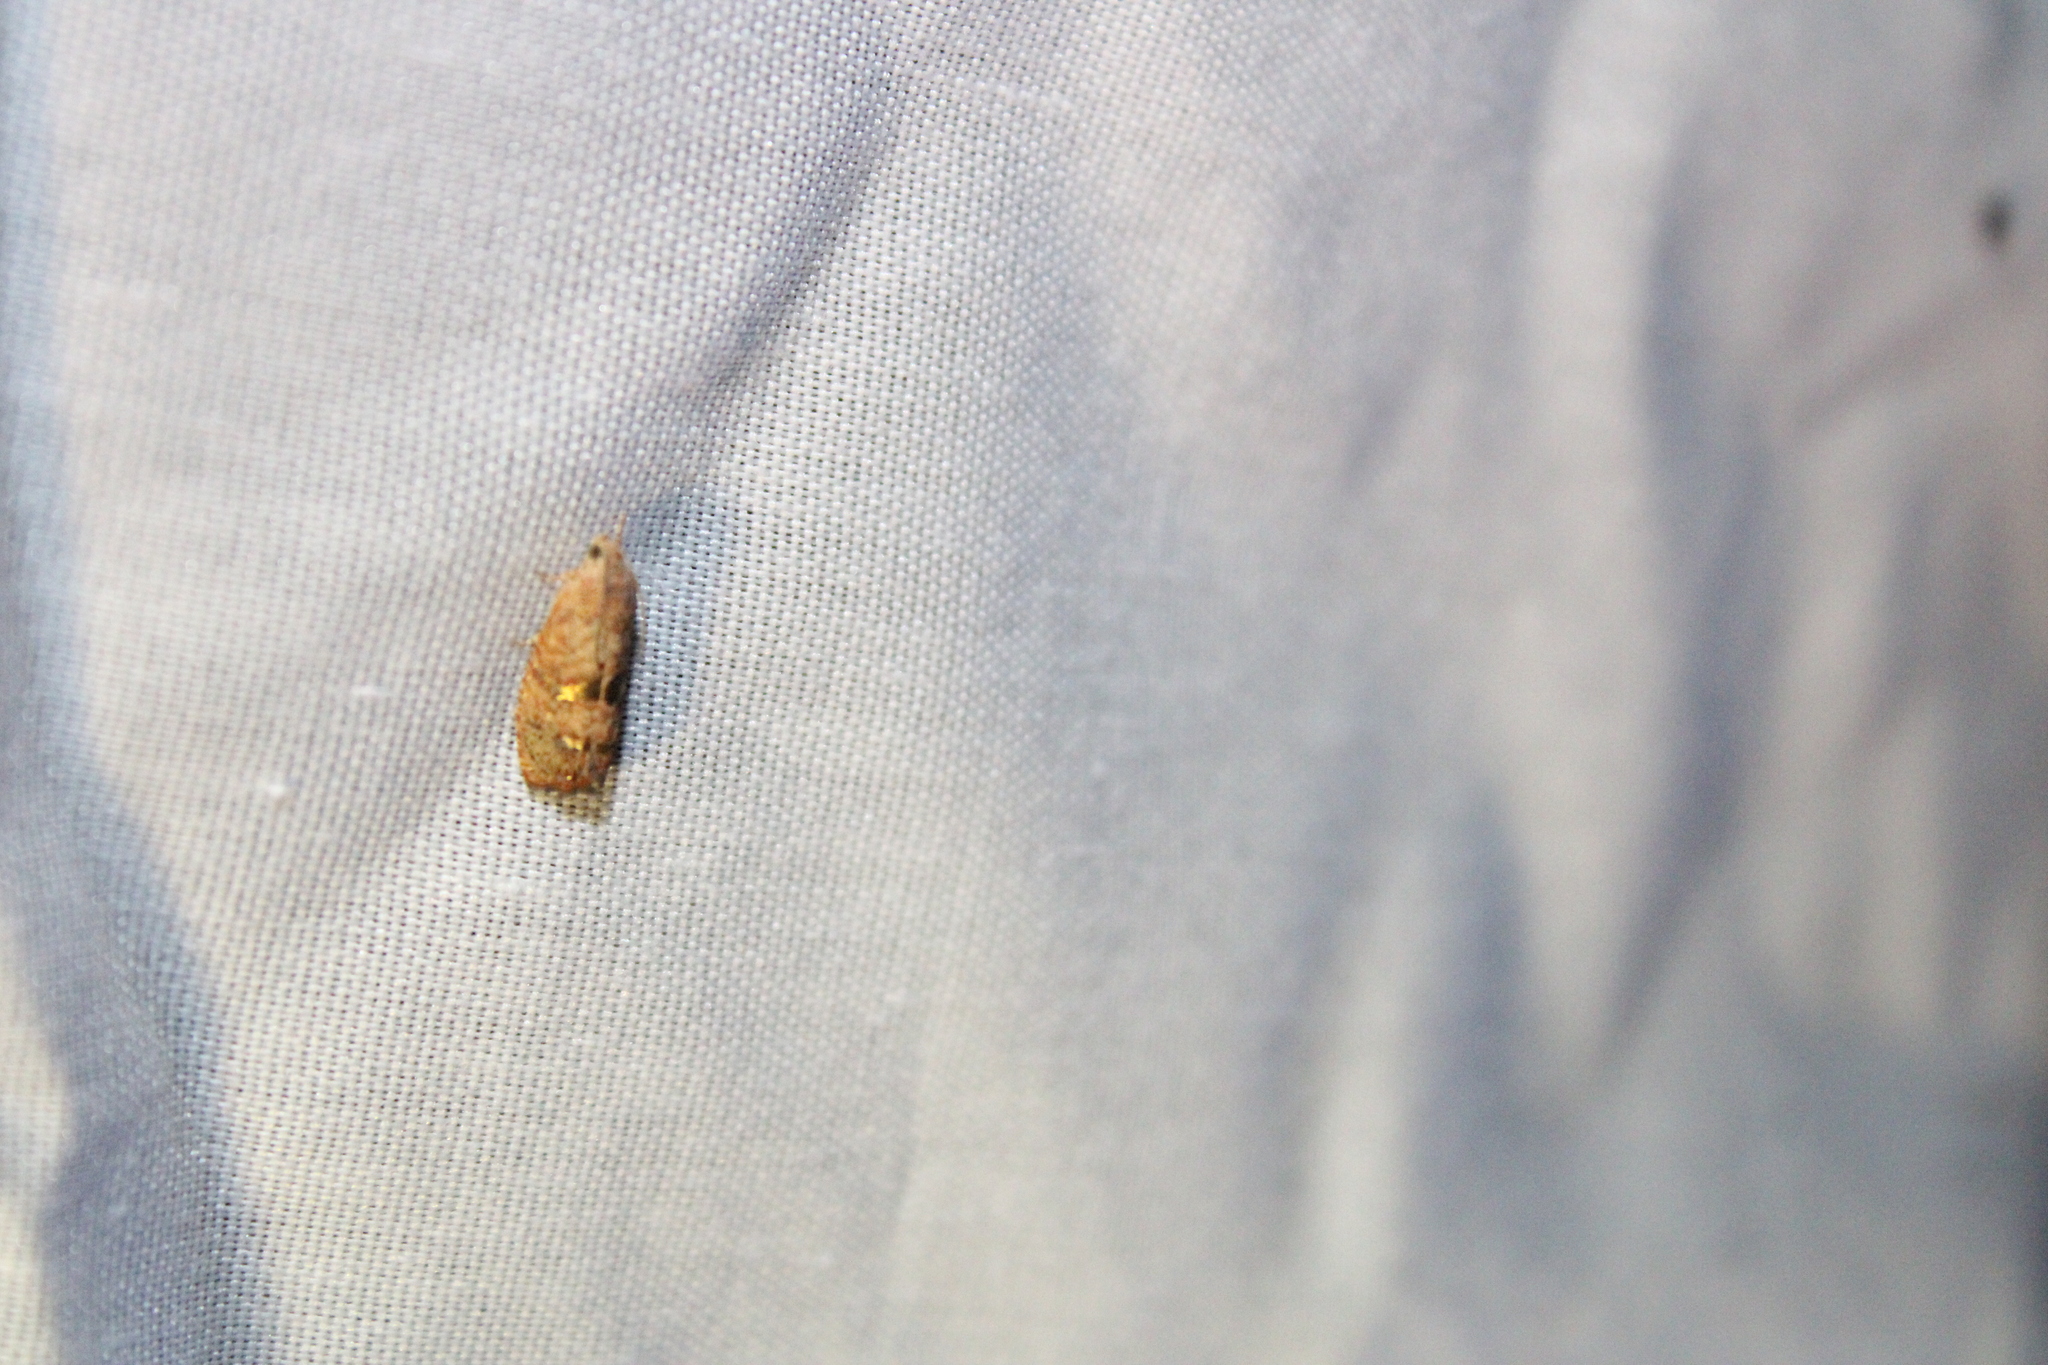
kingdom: Animalia
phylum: Arthropoda
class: Insecta
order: Lepidoptera
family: Tortricidae
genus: Cydia
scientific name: Cydia latiferreana
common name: Filbertworm moth
